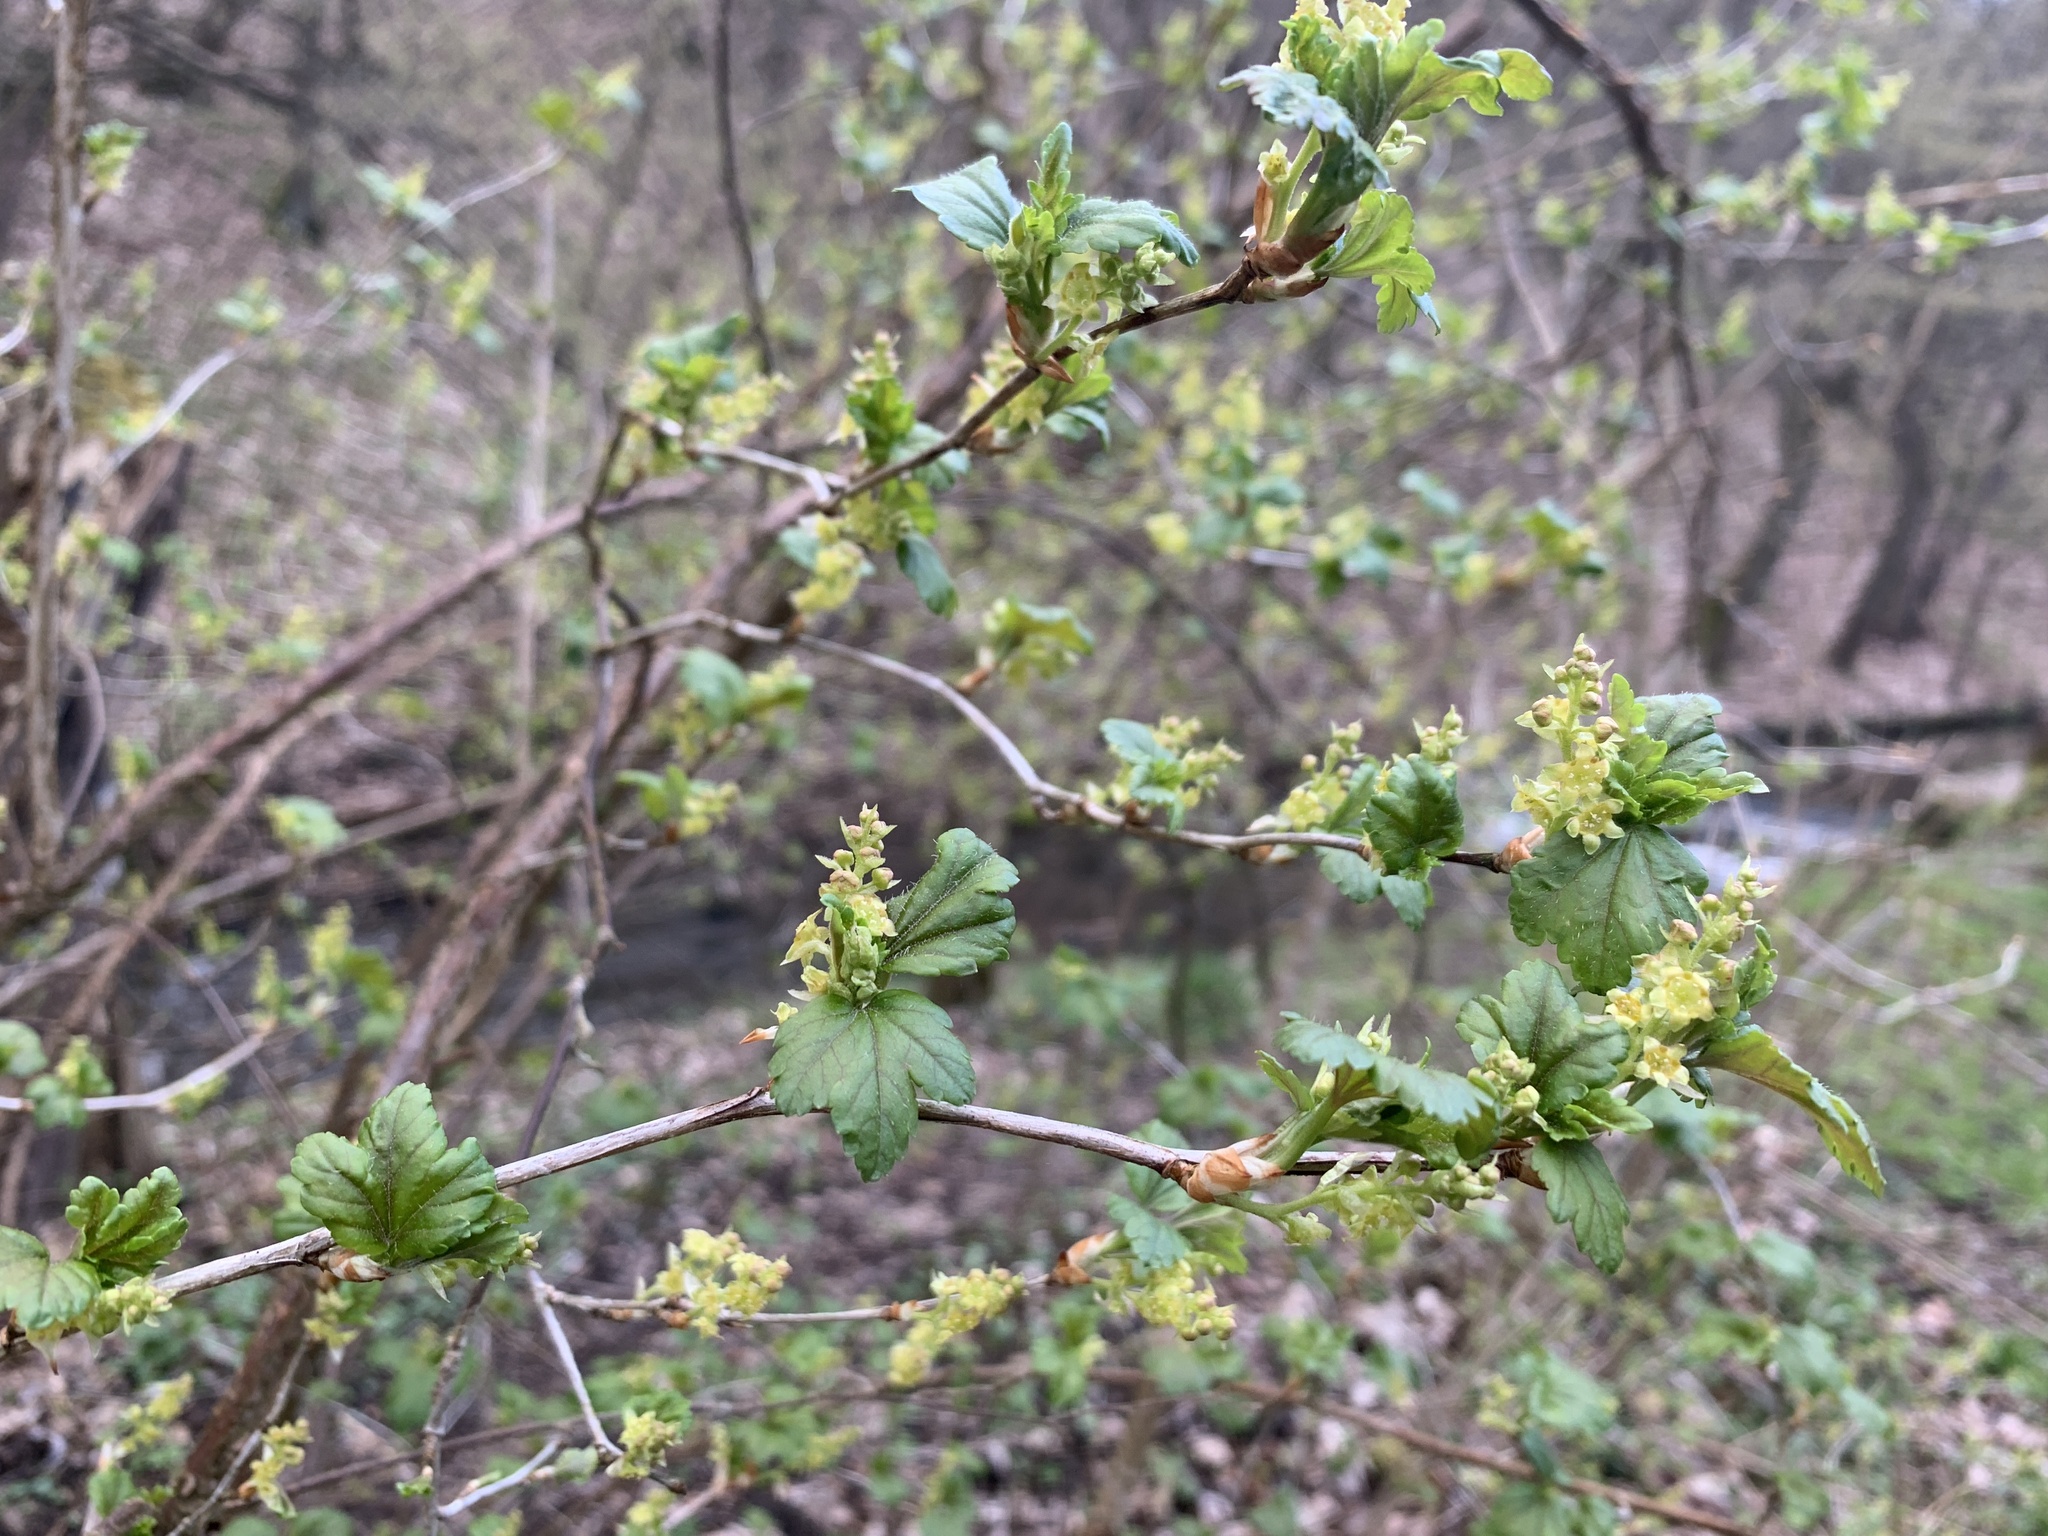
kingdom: Plantae
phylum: Tracheophyta
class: Magnoliopsida
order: Saxifragales
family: Grossulariaceae
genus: Ribes
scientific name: Ribes alpinum
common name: Alpine currant
